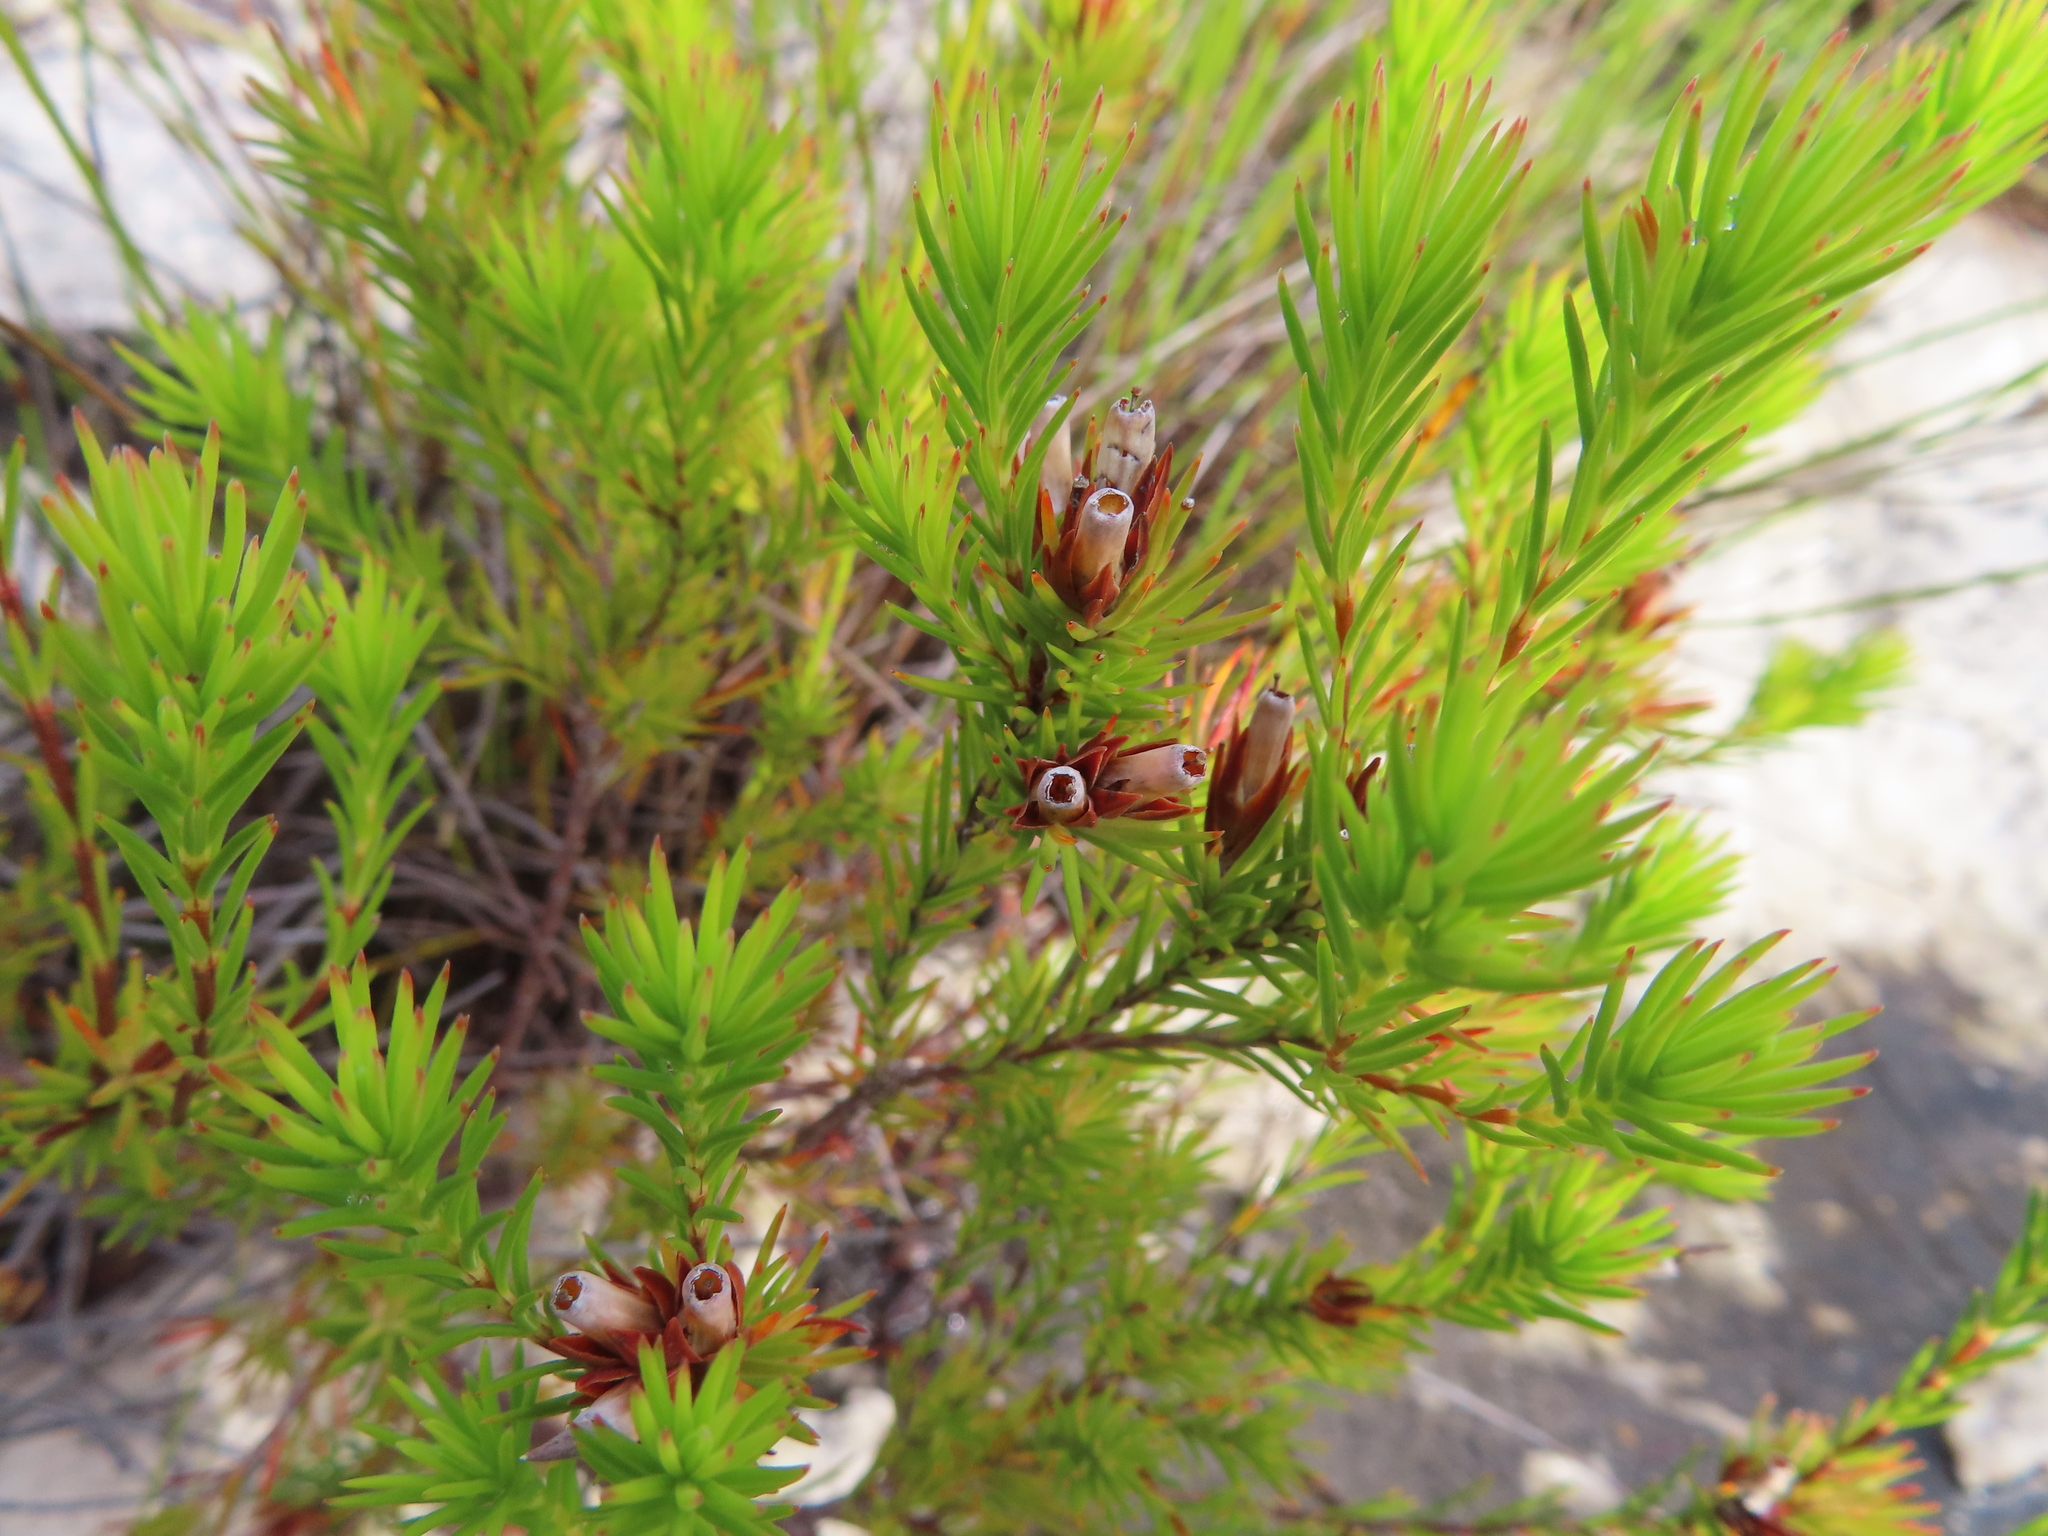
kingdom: Plantae
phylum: Tracheophyta
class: Magnoliopsida
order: Ericales
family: Ericaceae
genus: Erica
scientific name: Erica fastigiata
